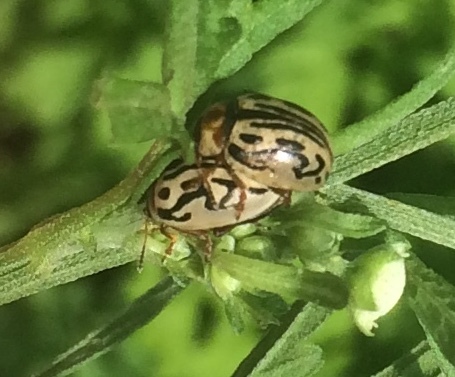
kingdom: Animalia
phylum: Arthropoda
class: Insecta
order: Coleoptera
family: Chrysomelidae
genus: Calligrapha
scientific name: Calligrapha
